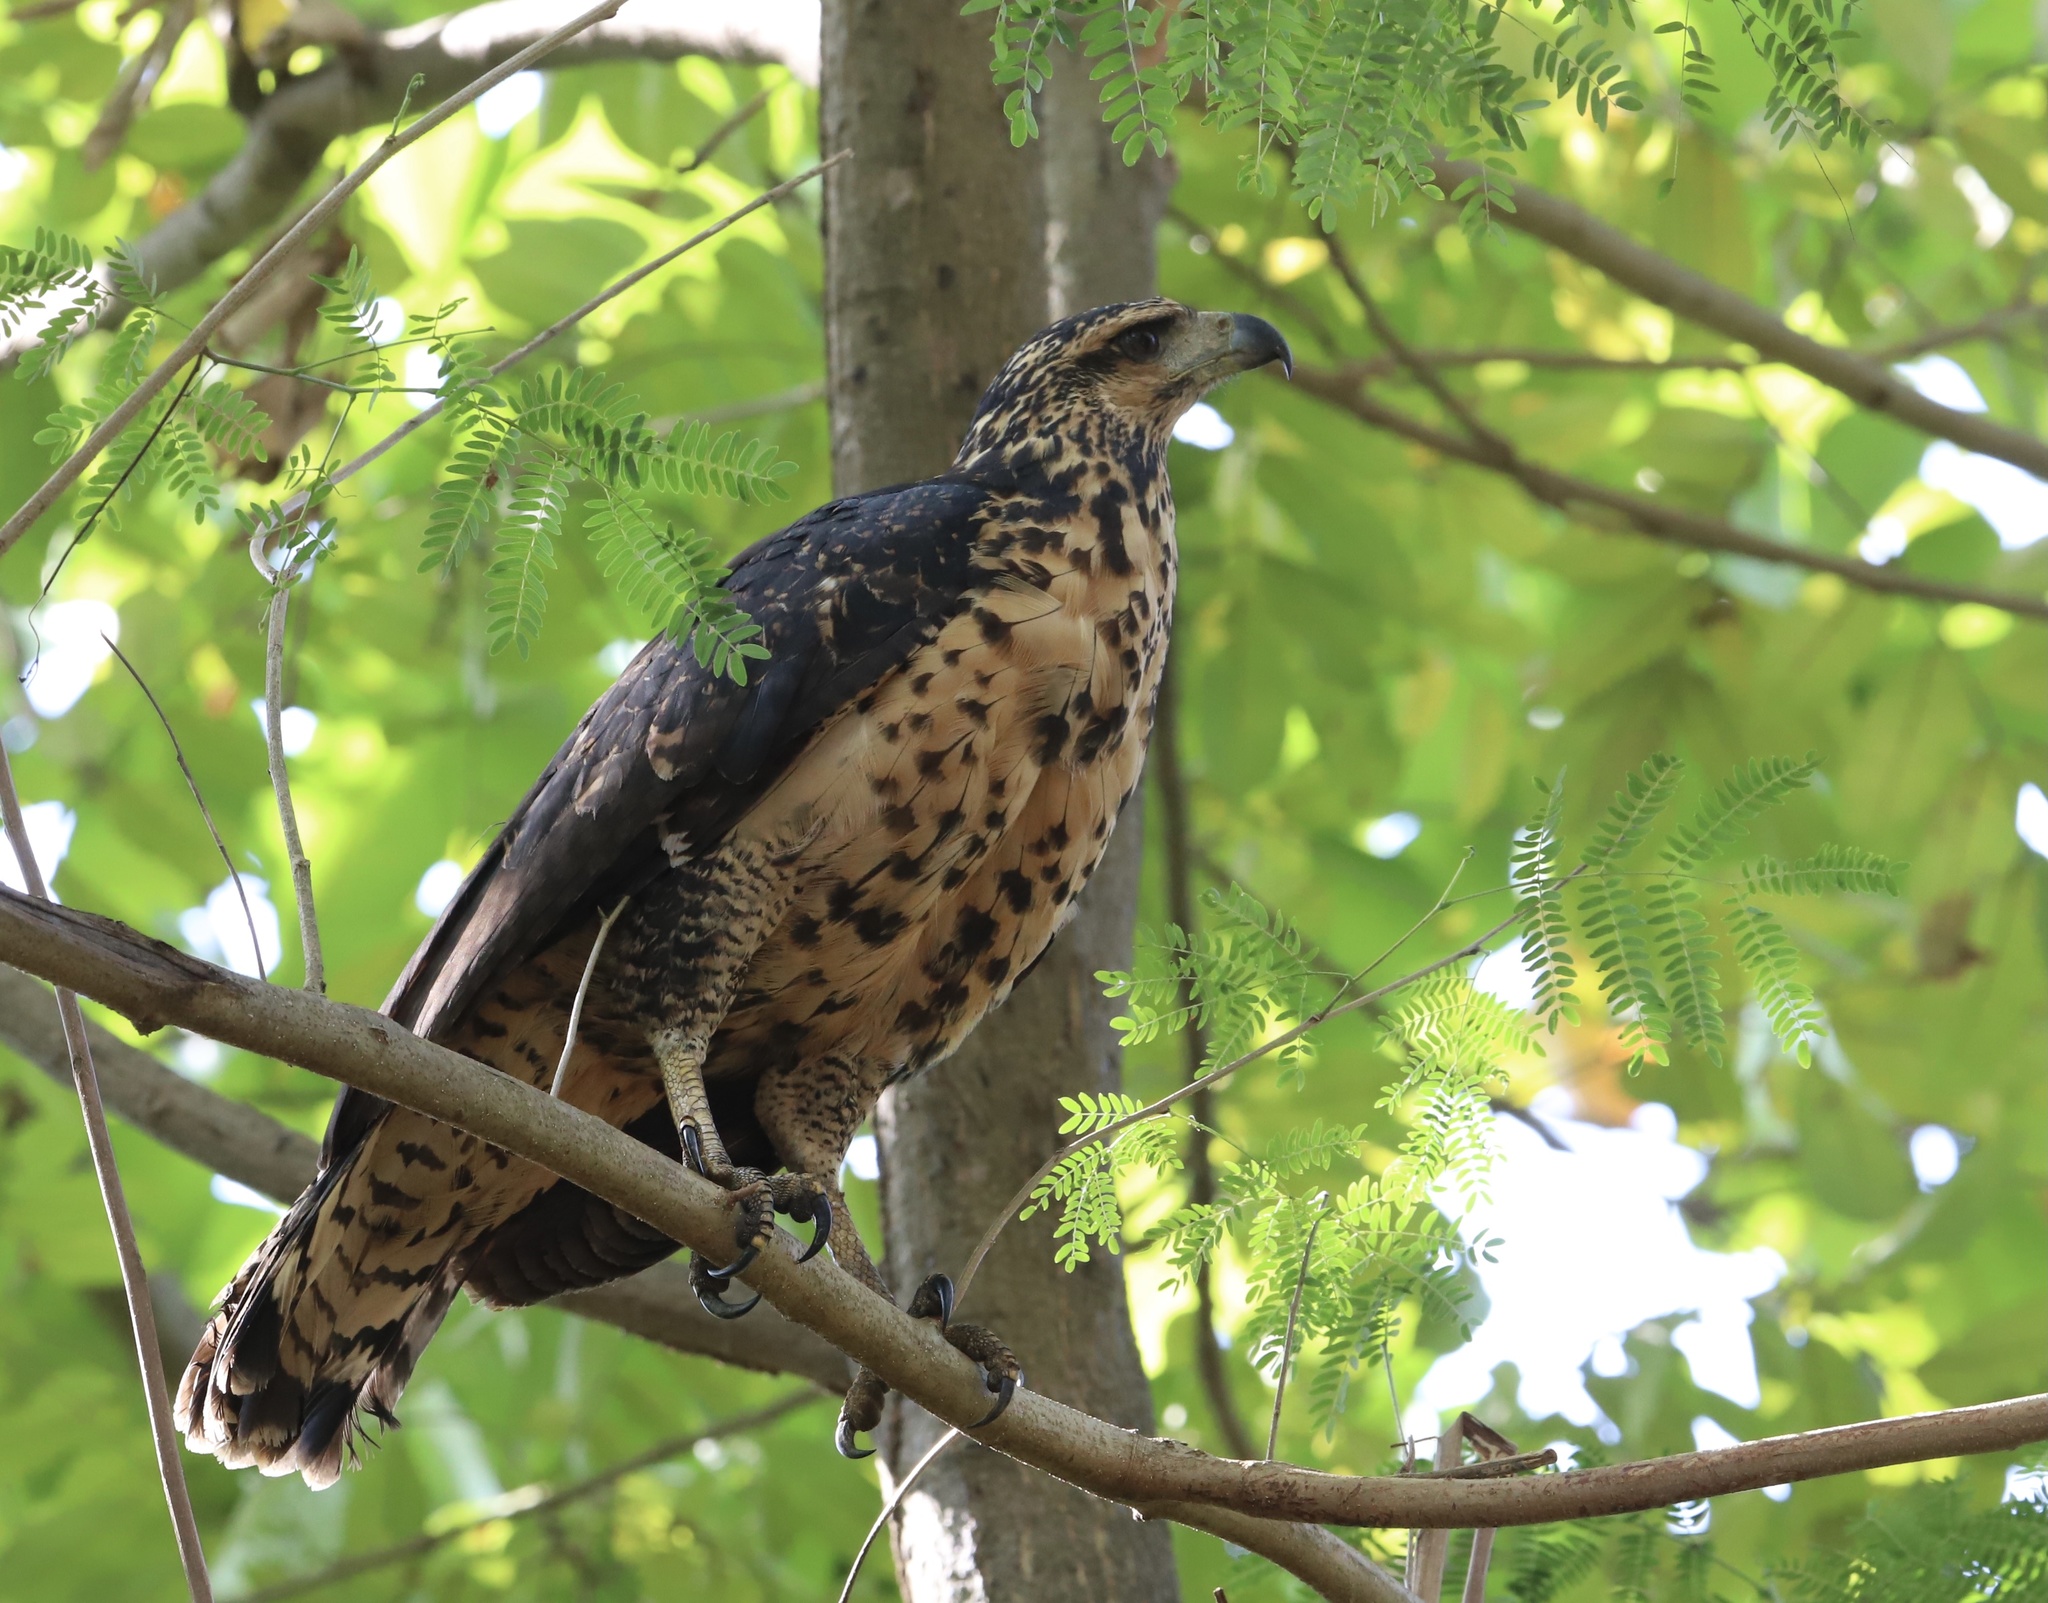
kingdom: Animalia
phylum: Chordata
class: Aves
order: Accipitriformes
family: Accipitridae
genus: Buteogallus
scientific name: Buteogallus urubitinga
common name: Great black hawk
